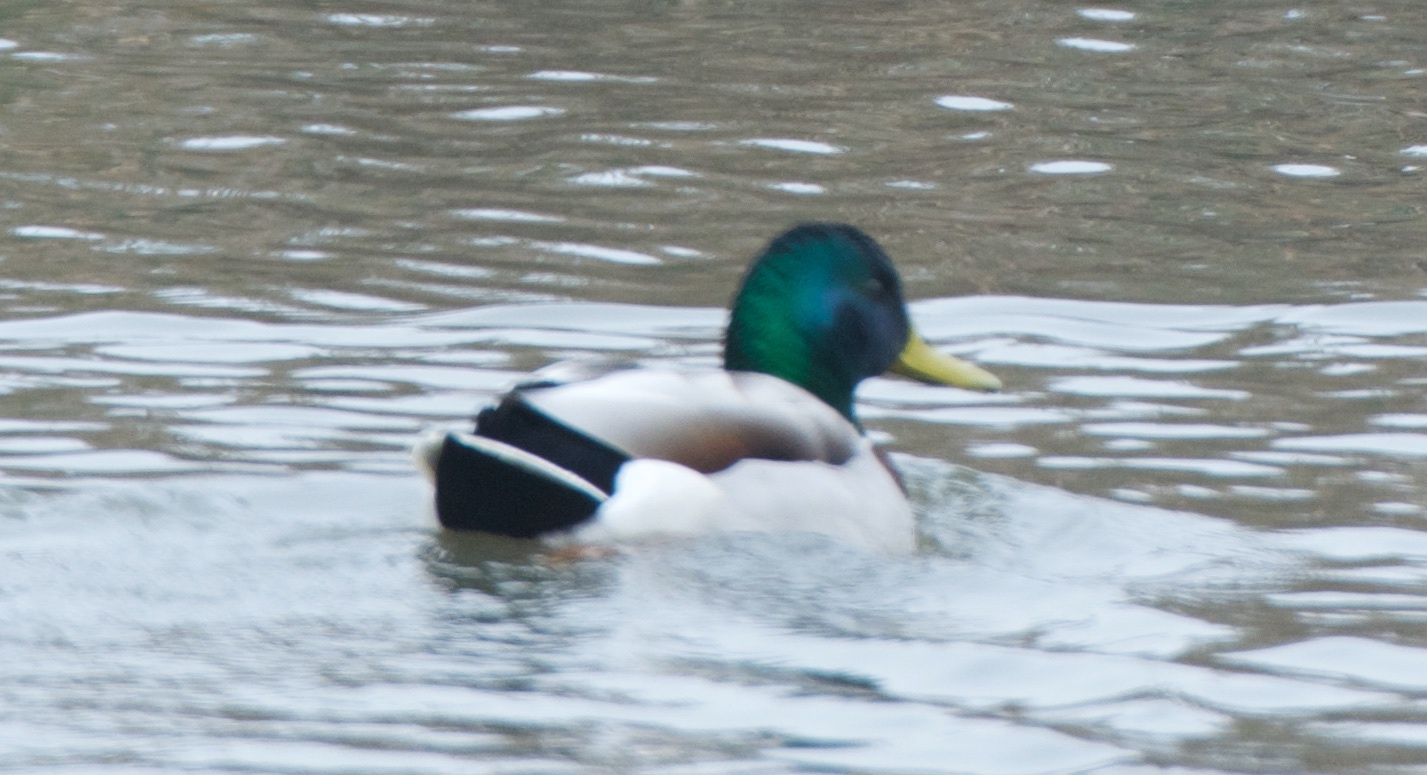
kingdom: Animalia
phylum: Chordata
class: Aves
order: Anseriformes
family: Anatidae
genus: Anas
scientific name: Anas platyrhynchos
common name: Mallard
